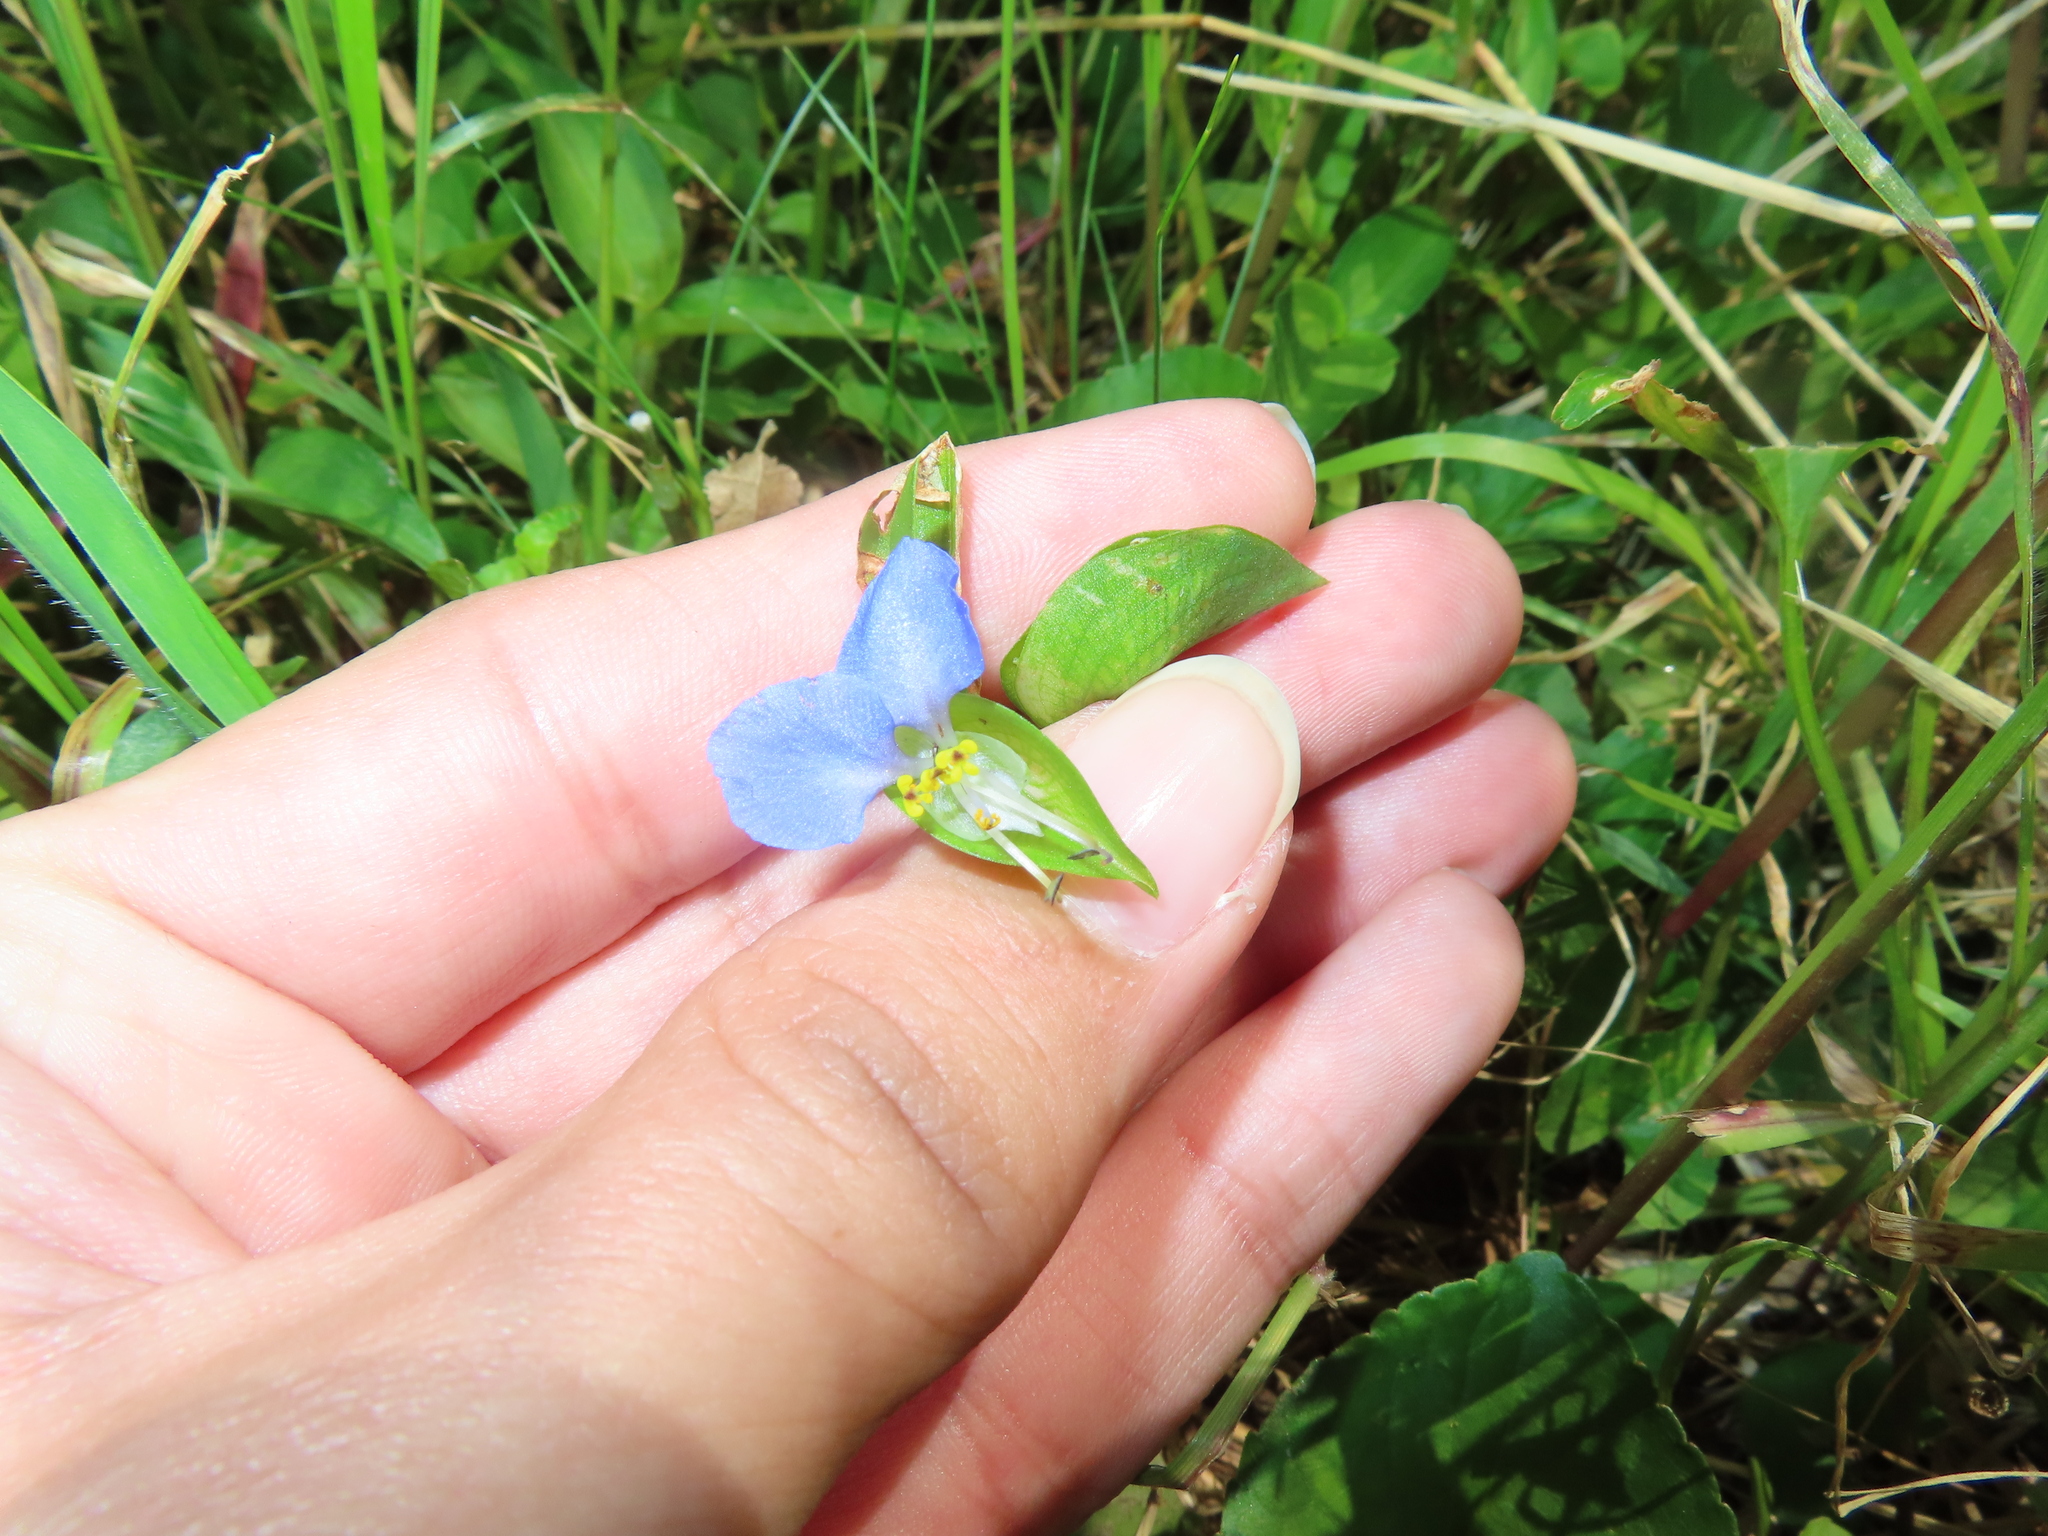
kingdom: Plantae
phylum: Tracheophyta
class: Liliopsida
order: Commelinales
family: Commelinaceae
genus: Commelina
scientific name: Commelina communis
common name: Asiatic dayflower
